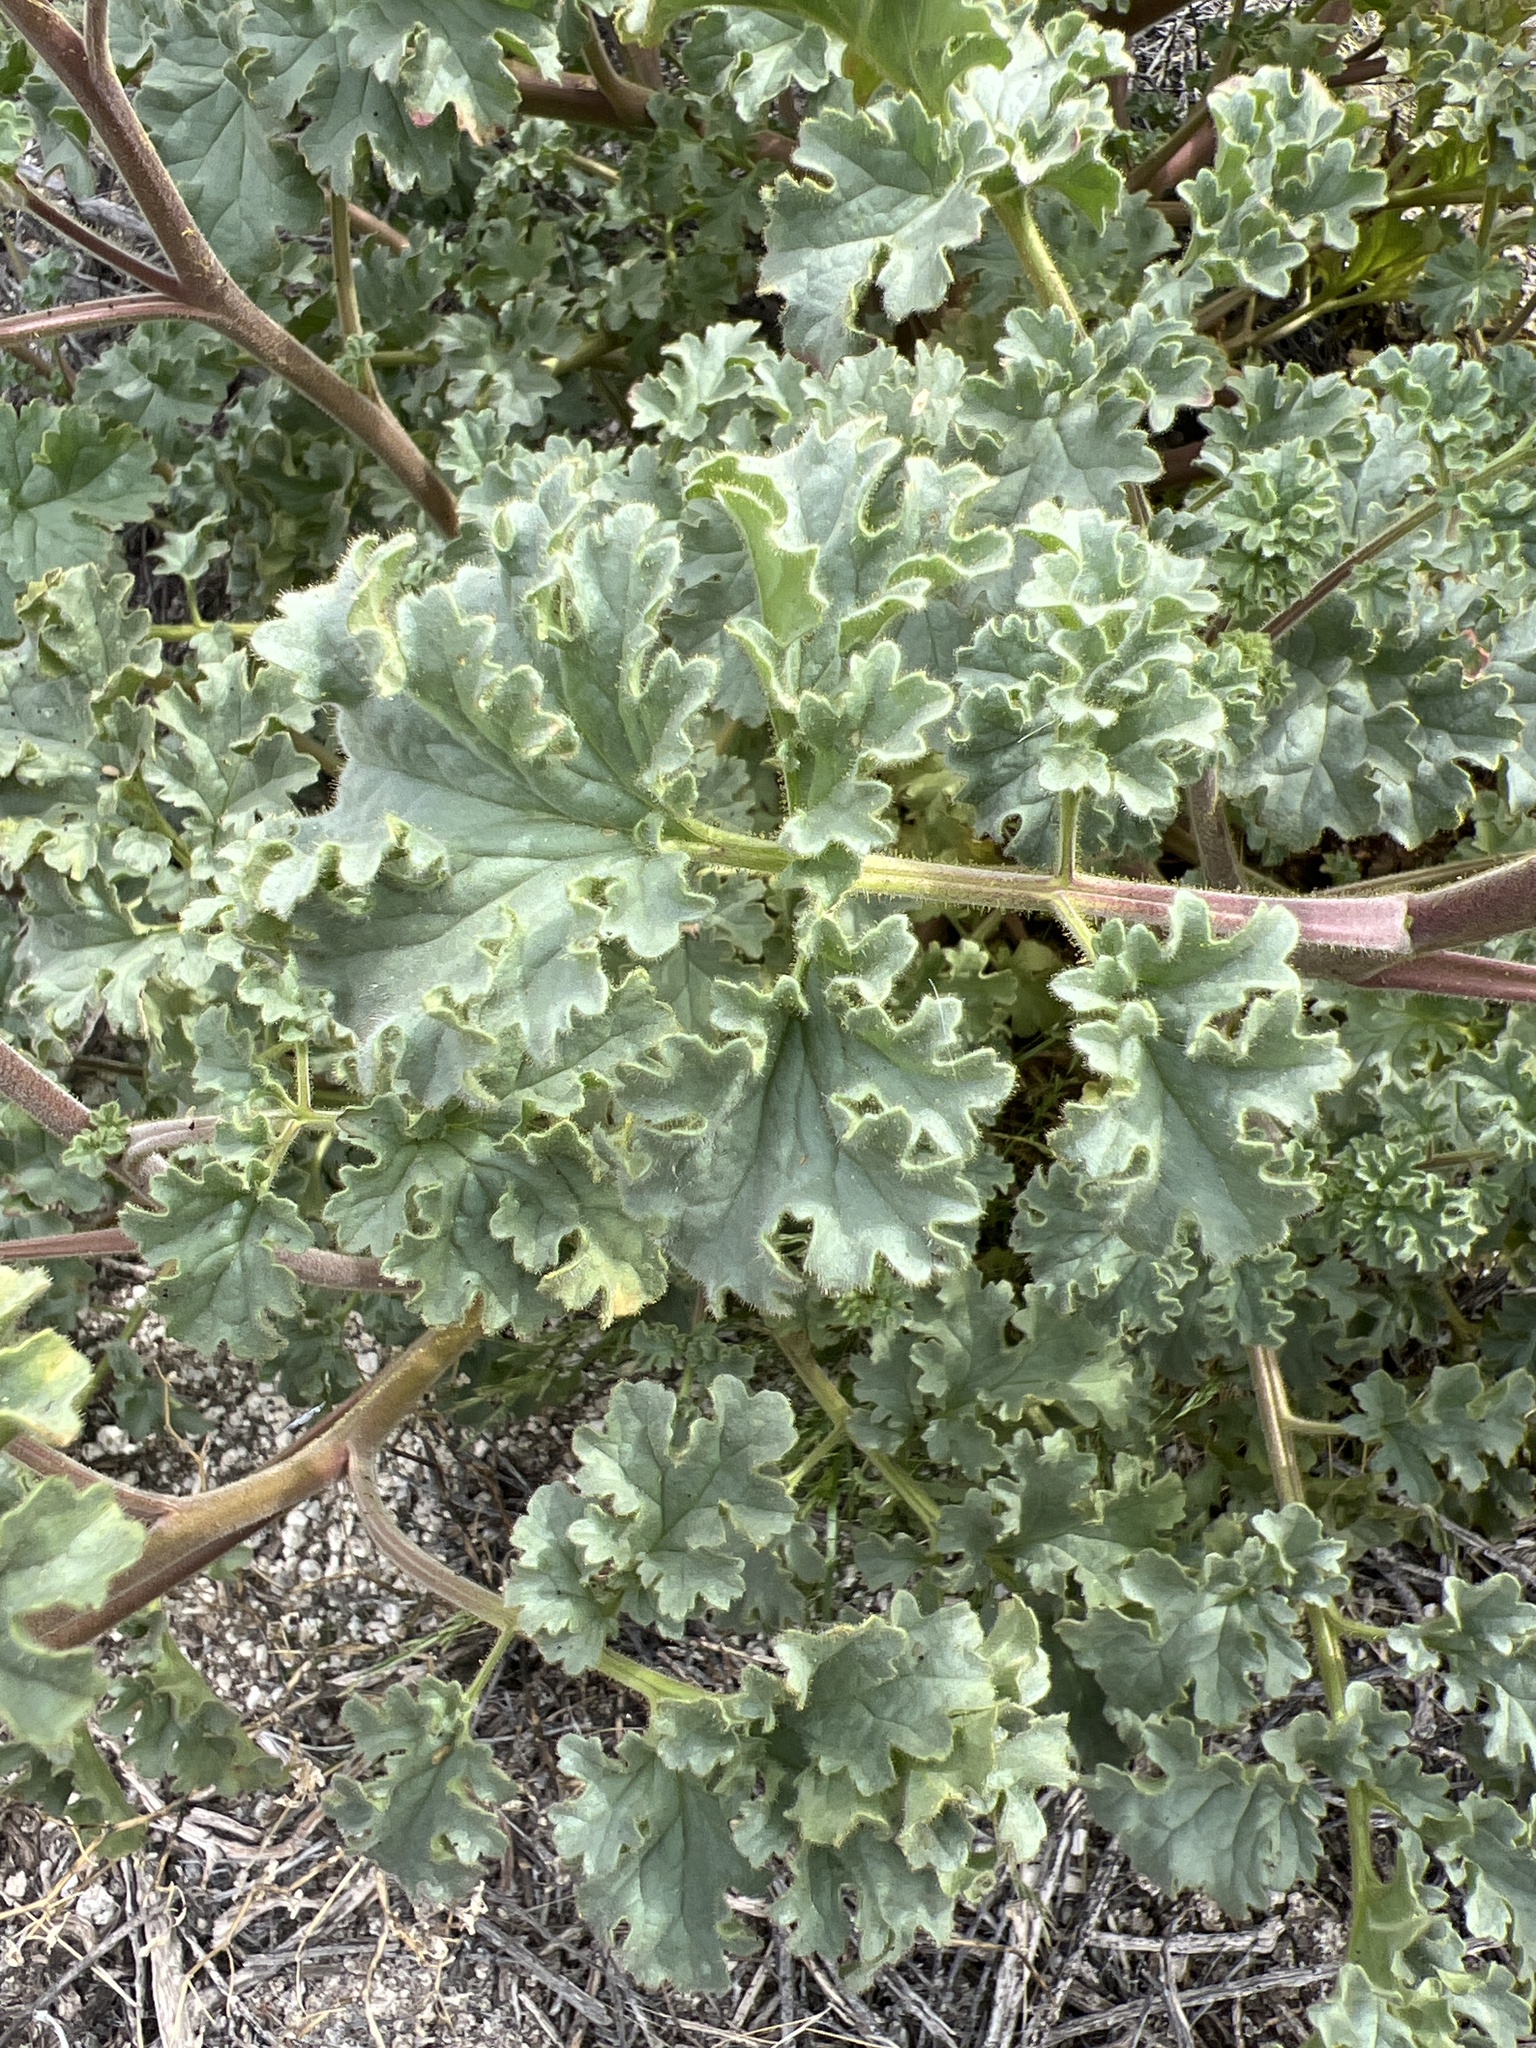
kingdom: Plantae
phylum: Tracheophyta
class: Magnoliopsida
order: Boraginales
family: Hydrophyllaceae
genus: Phacelia
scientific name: Phacelia pedicellata
